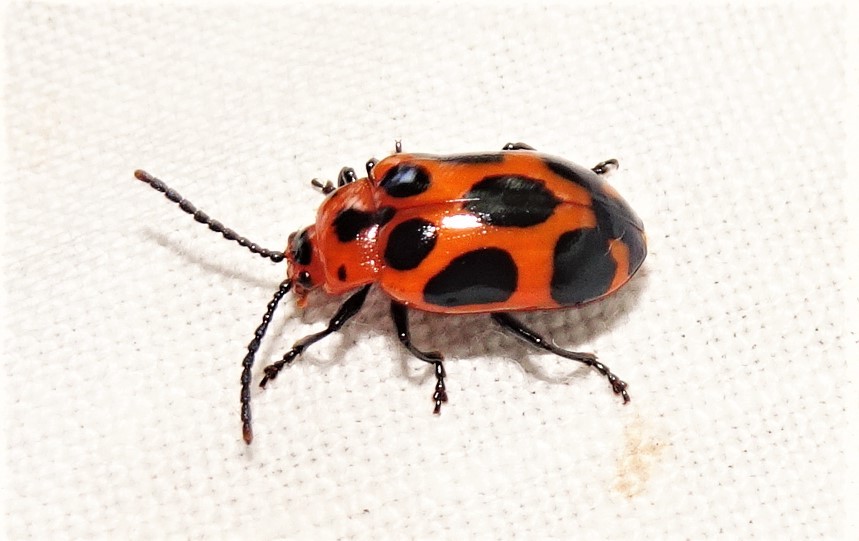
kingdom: Animalia
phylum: Arthropoda
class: Insecta
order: Coleoptera
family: Chrysomelidae
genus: Phyllocharis
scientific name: Phyllocharis
